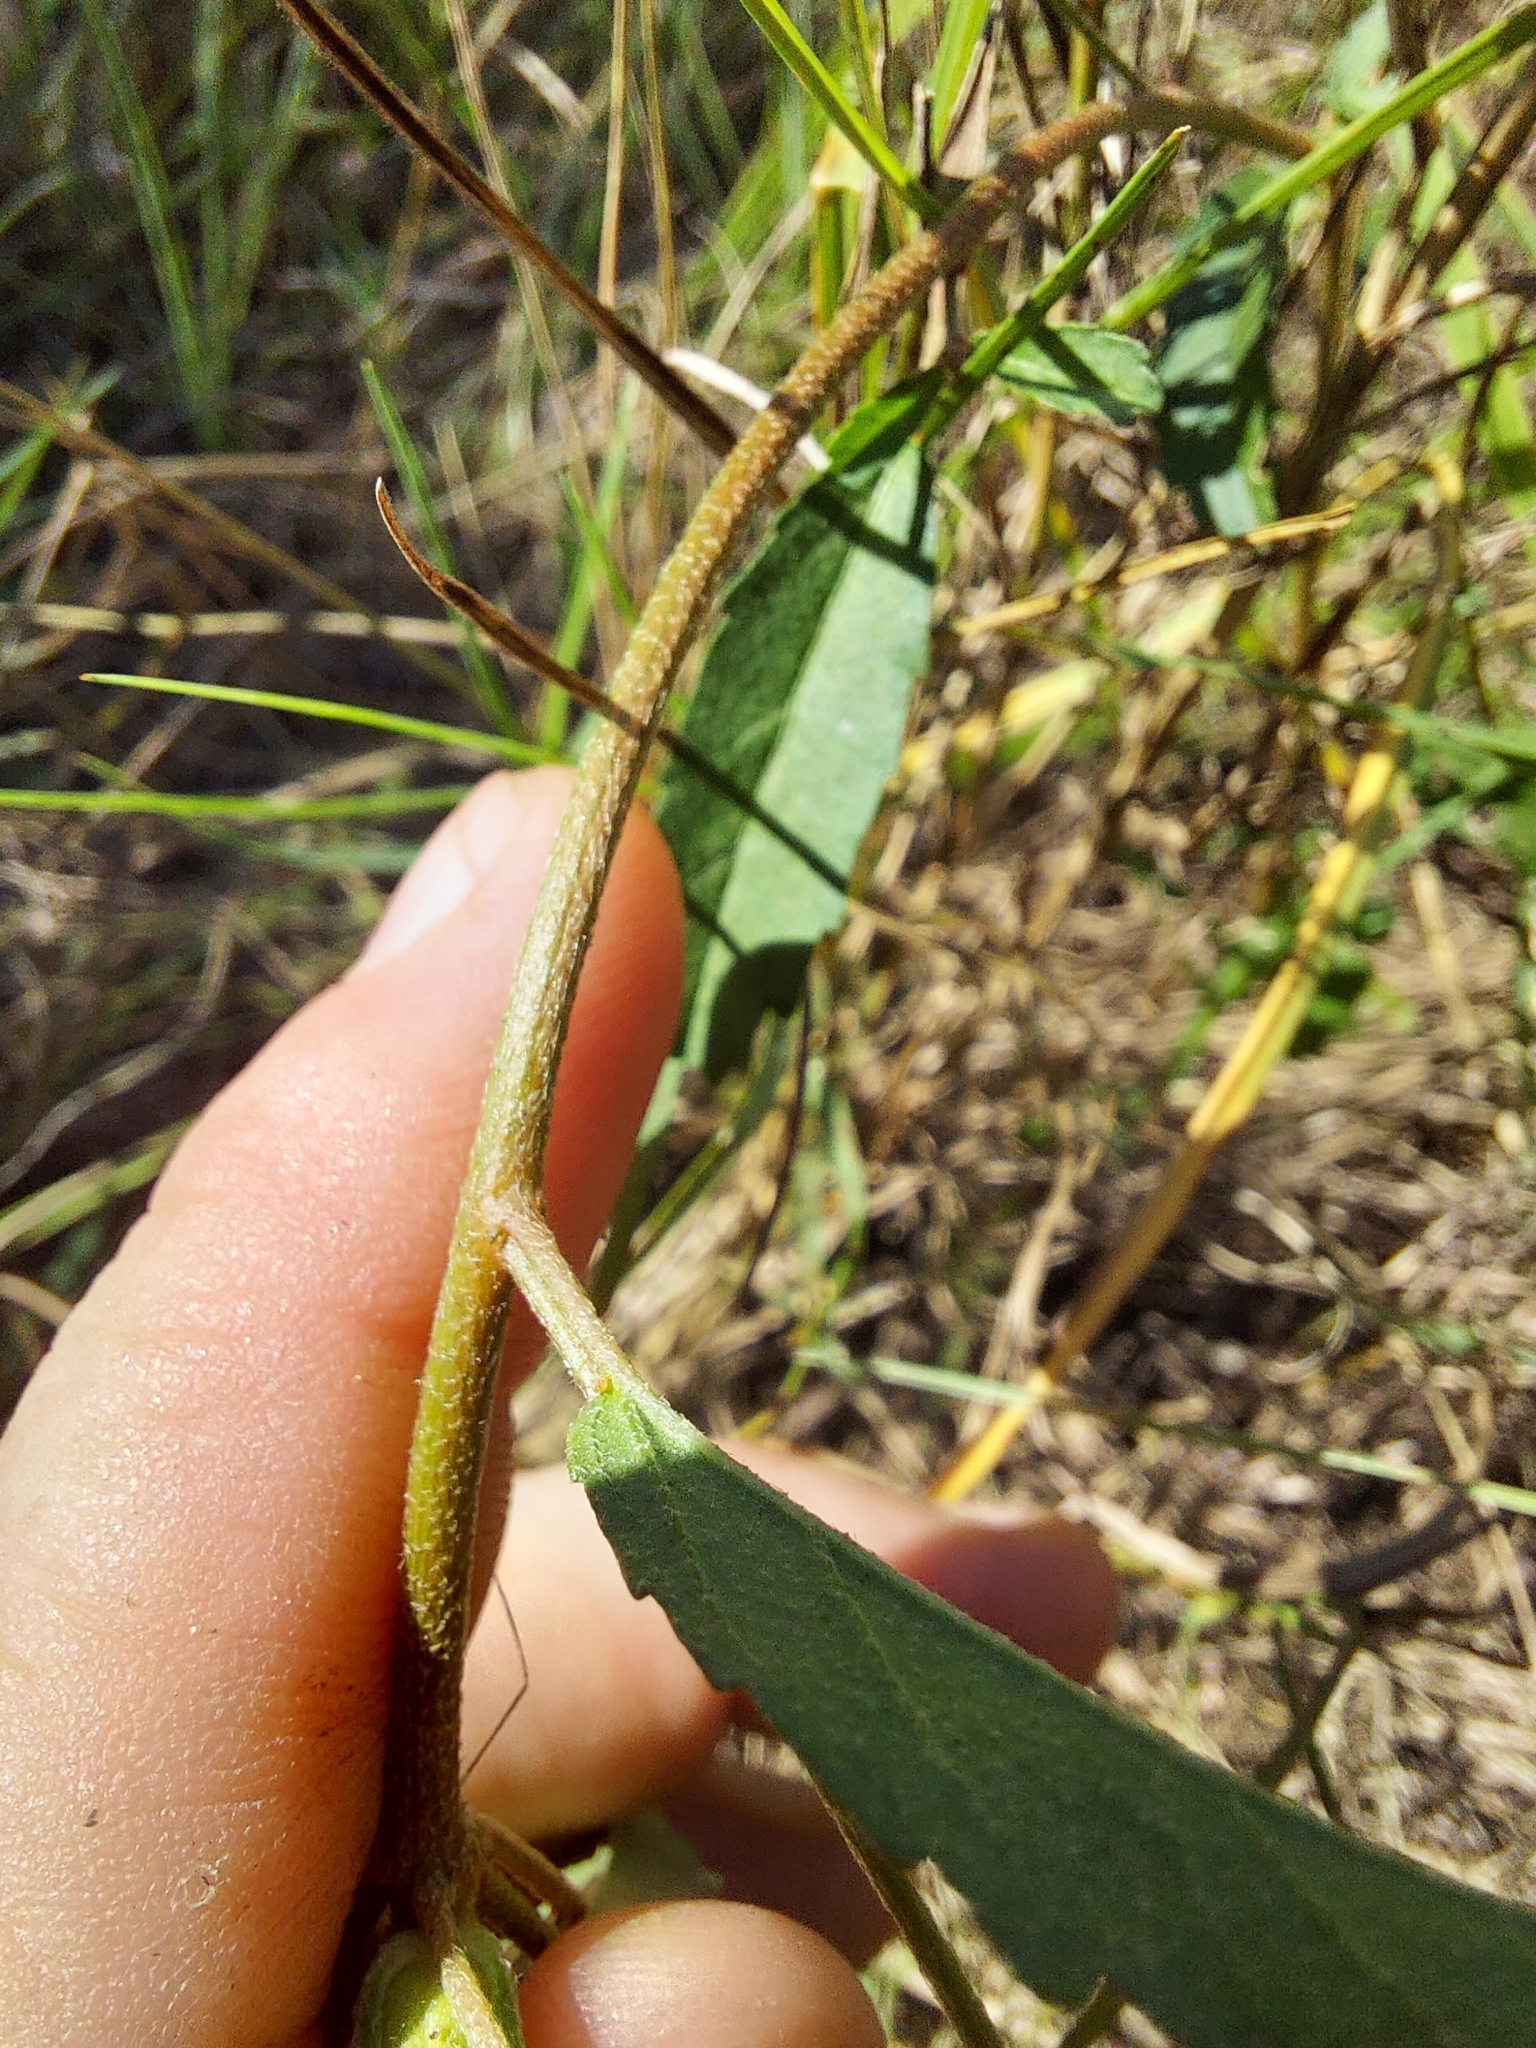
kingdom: Plantae
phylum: Tracheophyta
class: Magnoliopsida
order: Malpighiales
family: Euphorbiaceae
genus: Croton
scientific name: Croton glandulosus
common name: Tropic croton
